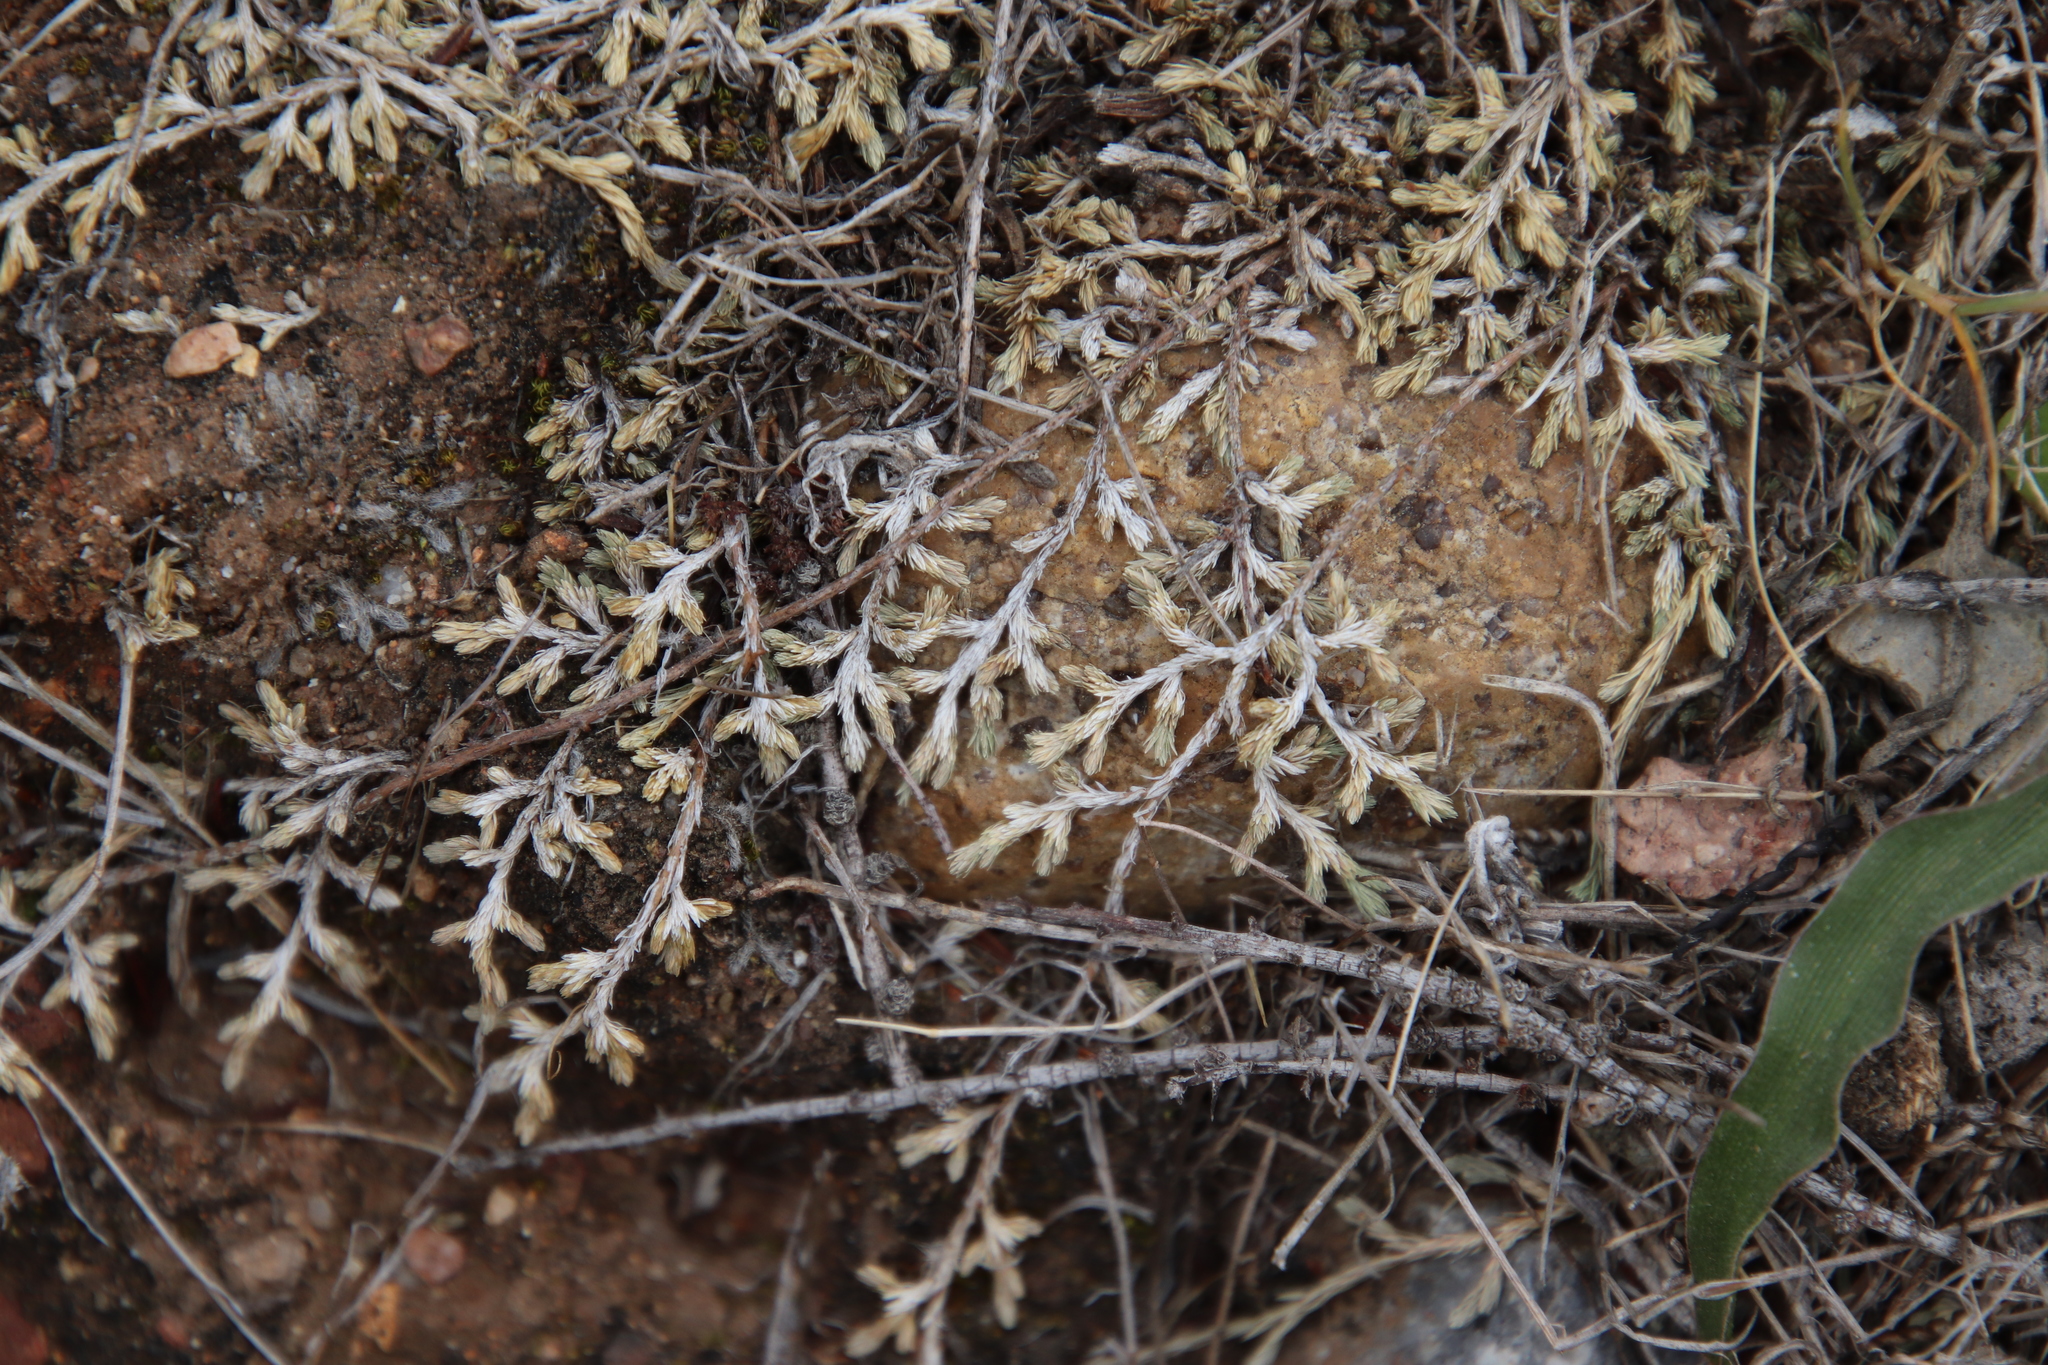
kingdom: Plantae
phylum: Tracheophyta
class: Lycopodiopsida
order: Selaginellales
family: Selaginellaceae
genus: Selaginella
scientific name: Selaginella cinerascens
